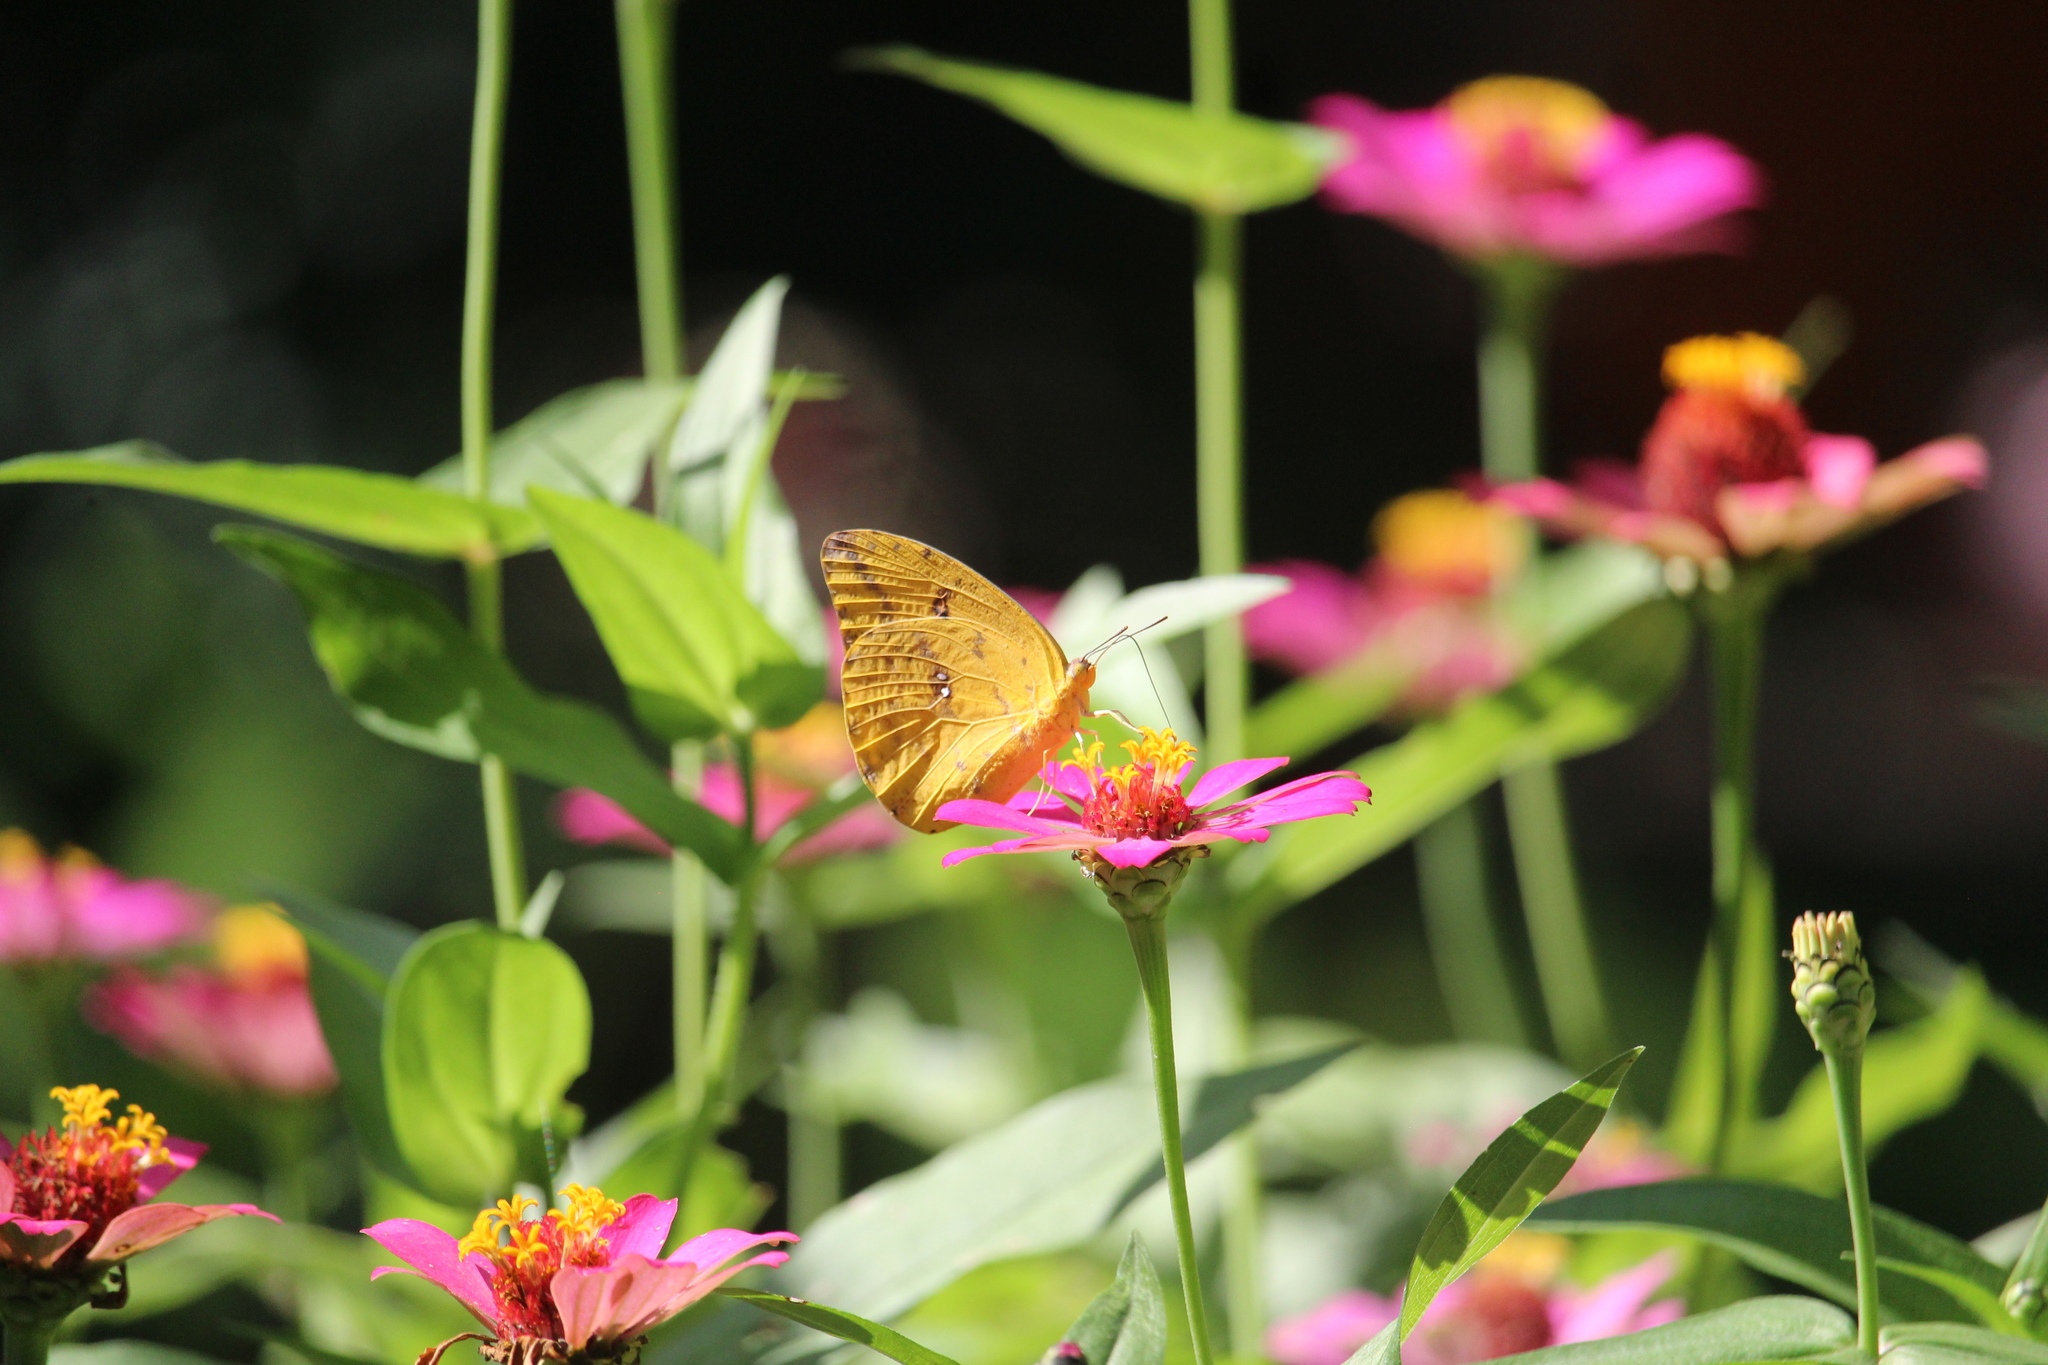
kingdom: Animalia
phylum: Arthropoda
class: Insecta
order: Lepidoptera
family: Pieridae
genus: Phoebis
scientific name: Phoebis agarithe
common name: Large orange sulphur
